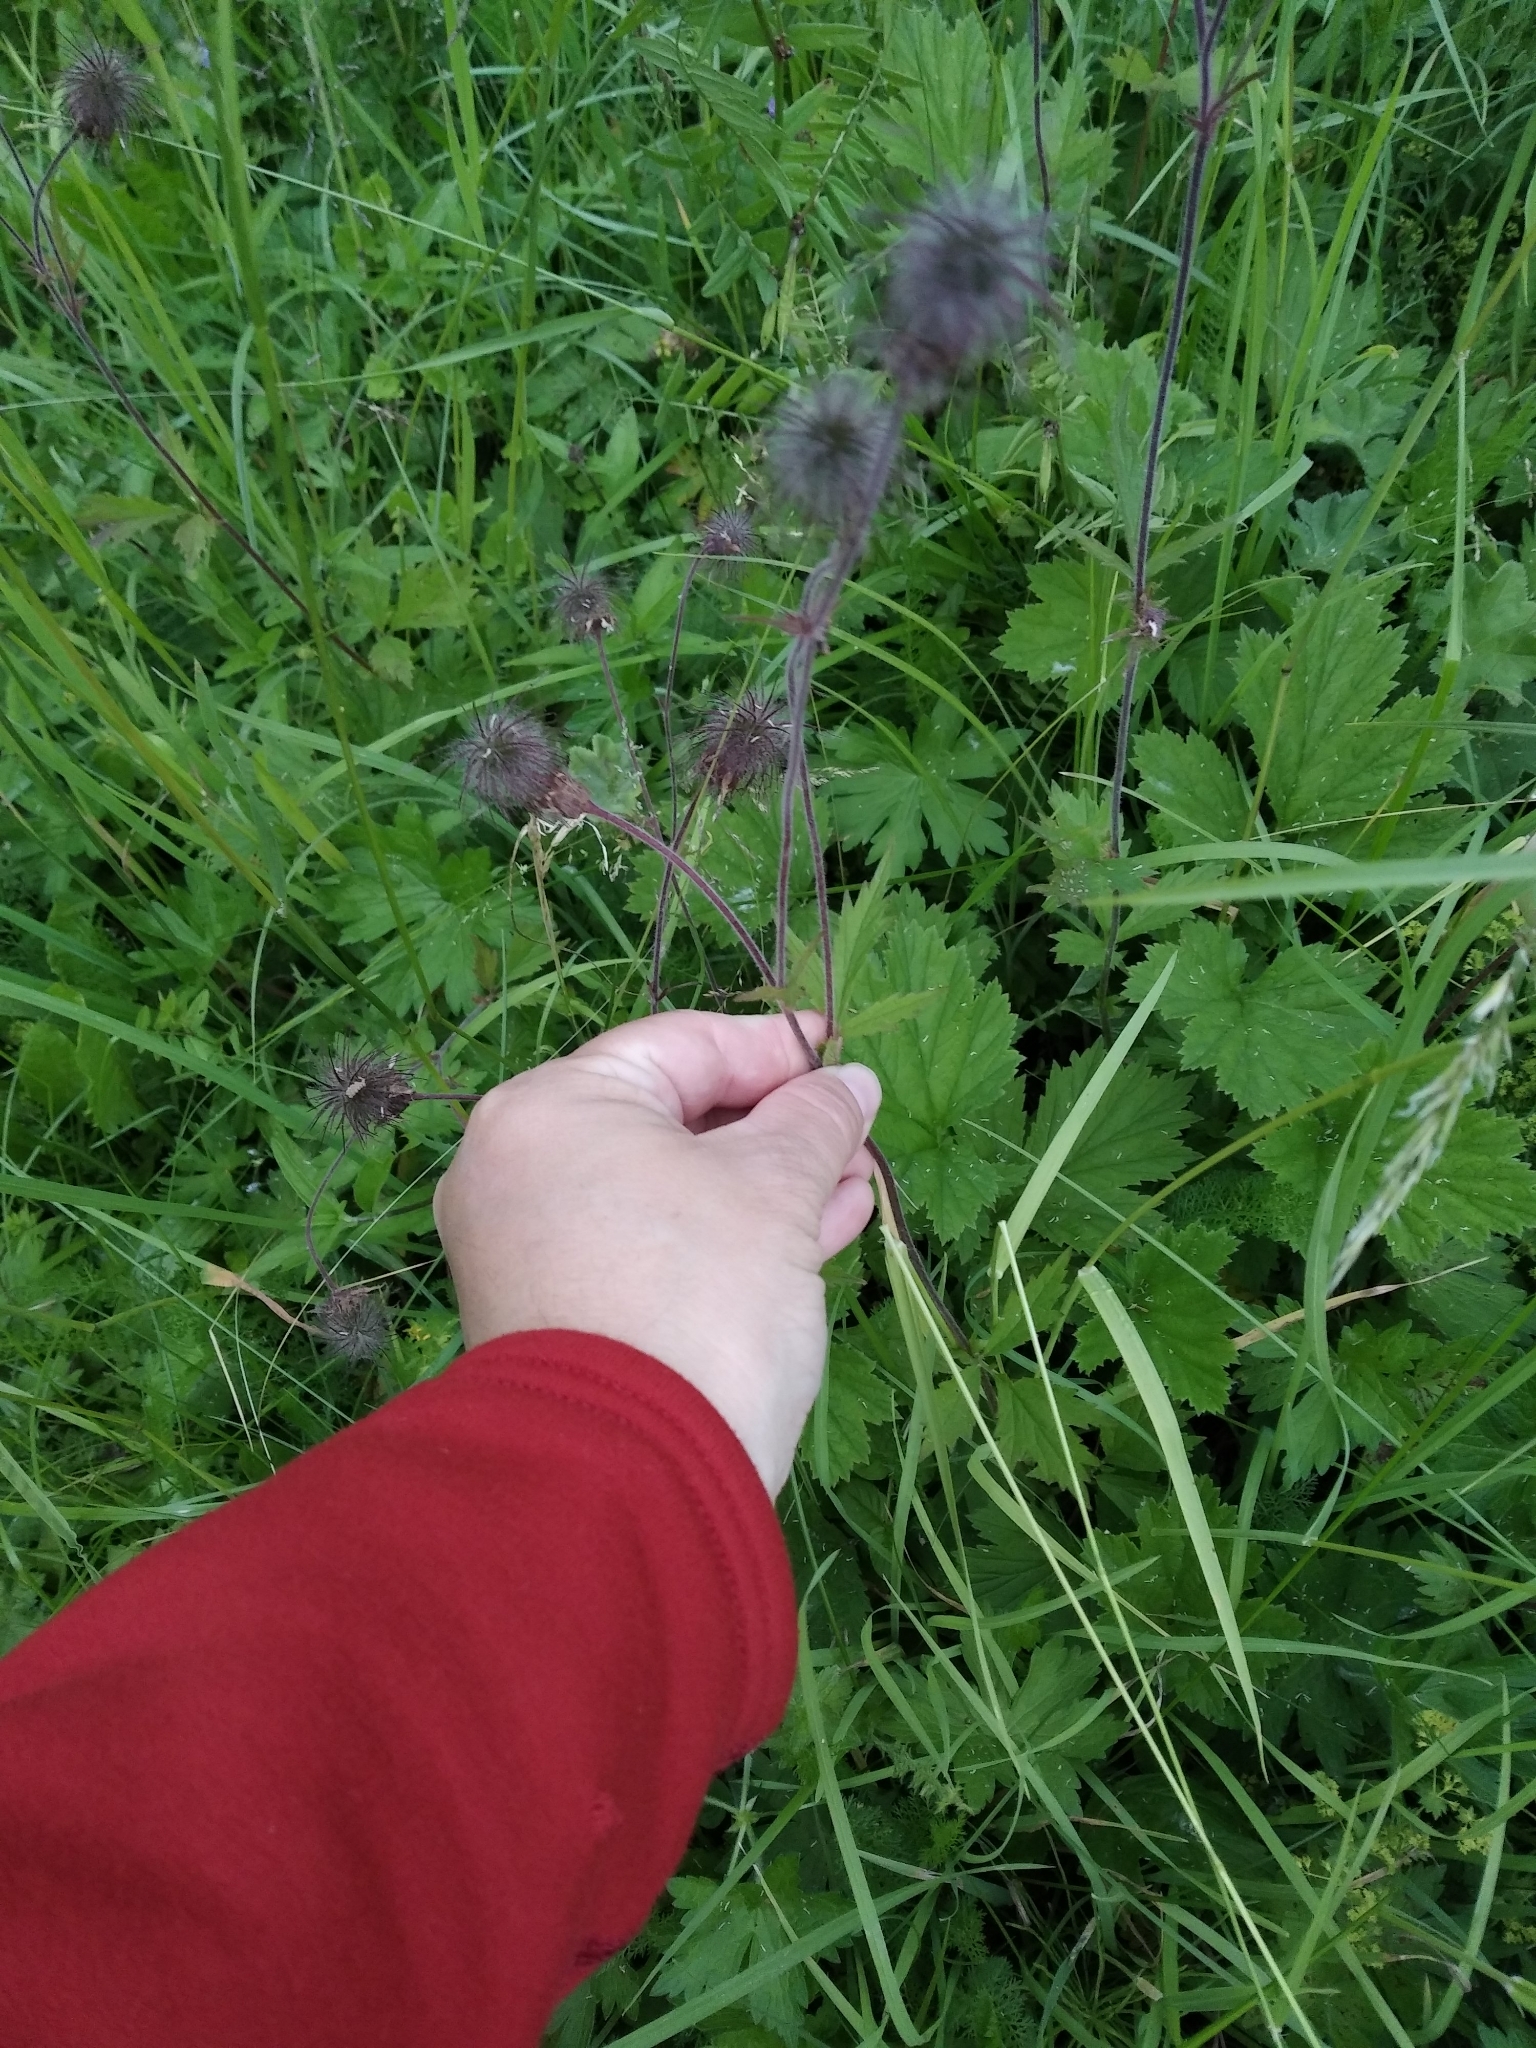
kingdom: Plantae
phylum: Tracheophyta
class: Magnoliopsida
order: Rosales
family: Rosaceae
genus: Geum
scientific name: Geum rivale
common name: Water avens
